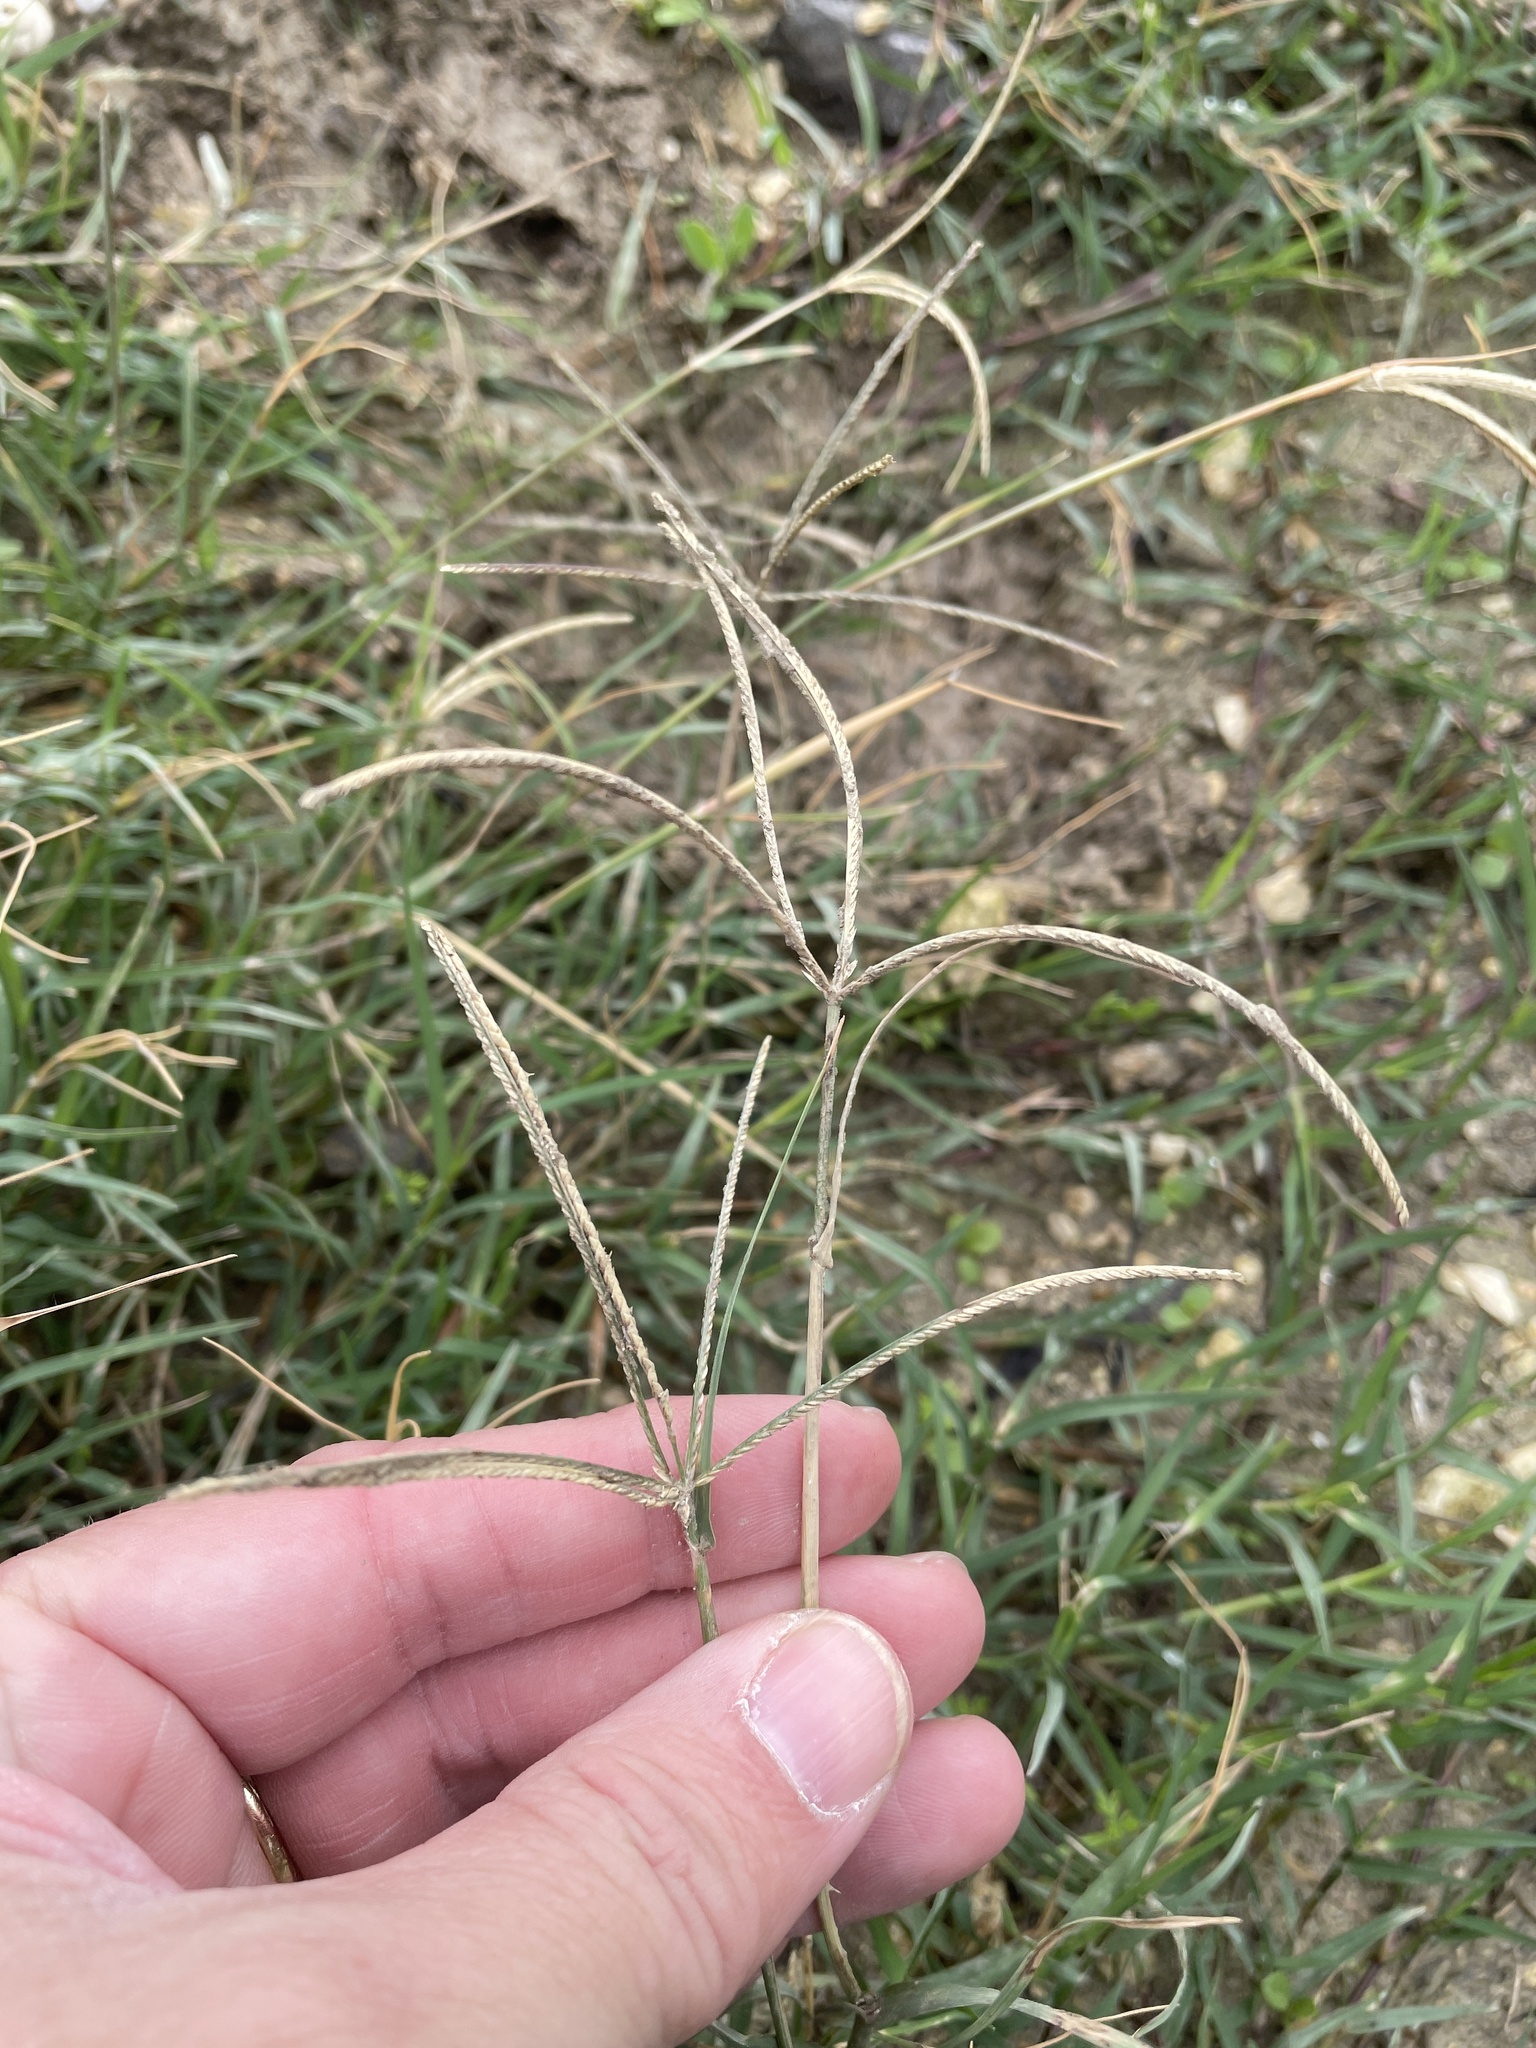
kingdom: Plantae
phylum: Tracheophyta
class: Liliopsida
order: Poales
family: Poaceae
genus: Cynodon
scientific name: Cynodon dactylon
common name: Bermuda grass
